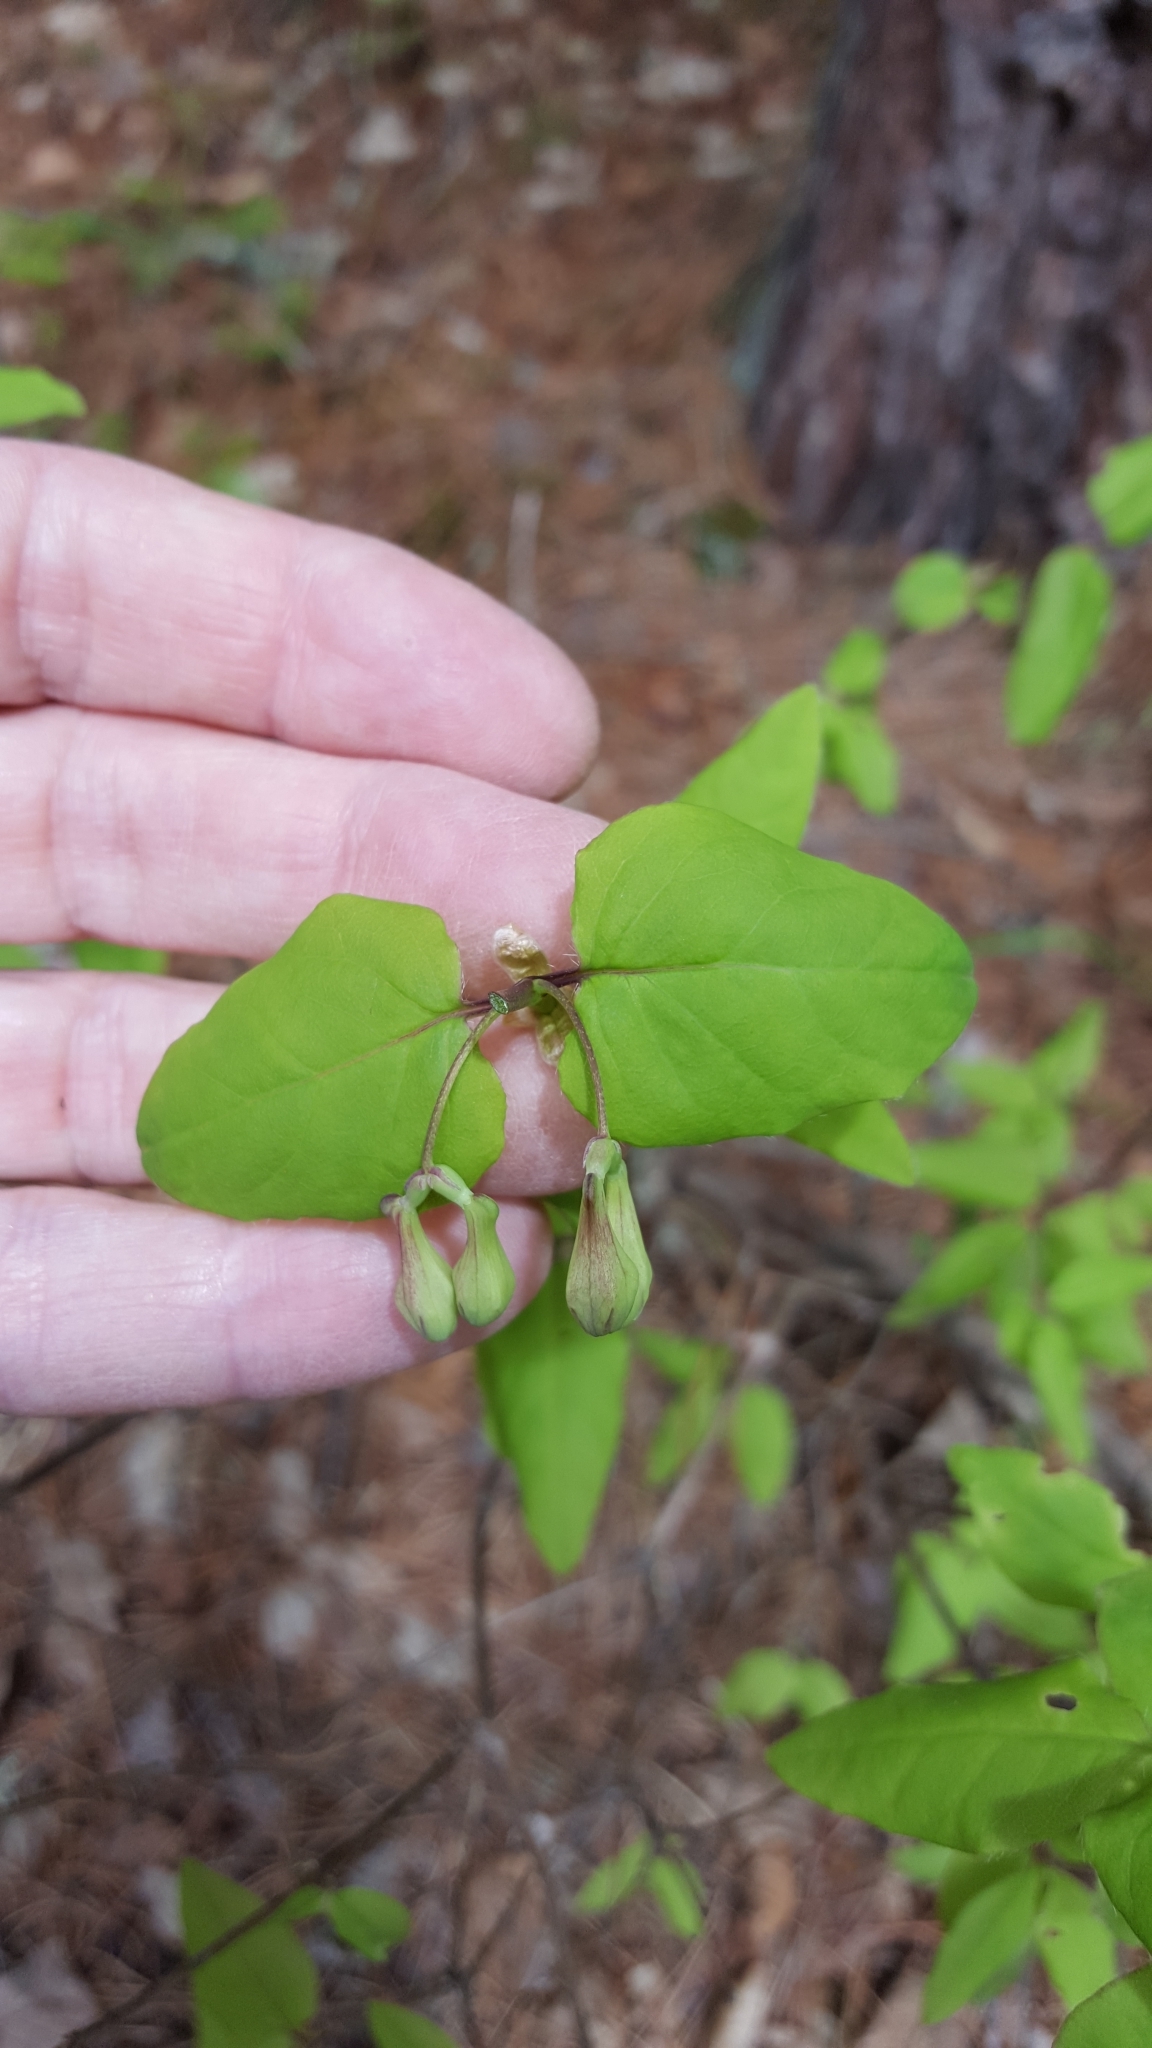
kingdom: Plantae
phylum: Tracheophyta
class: Magnoliopsida
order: Dipsacales
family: Caprifoliaceae
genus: Lonicera
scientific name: Lonicera canadensis
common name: American fly-honeysuckle
